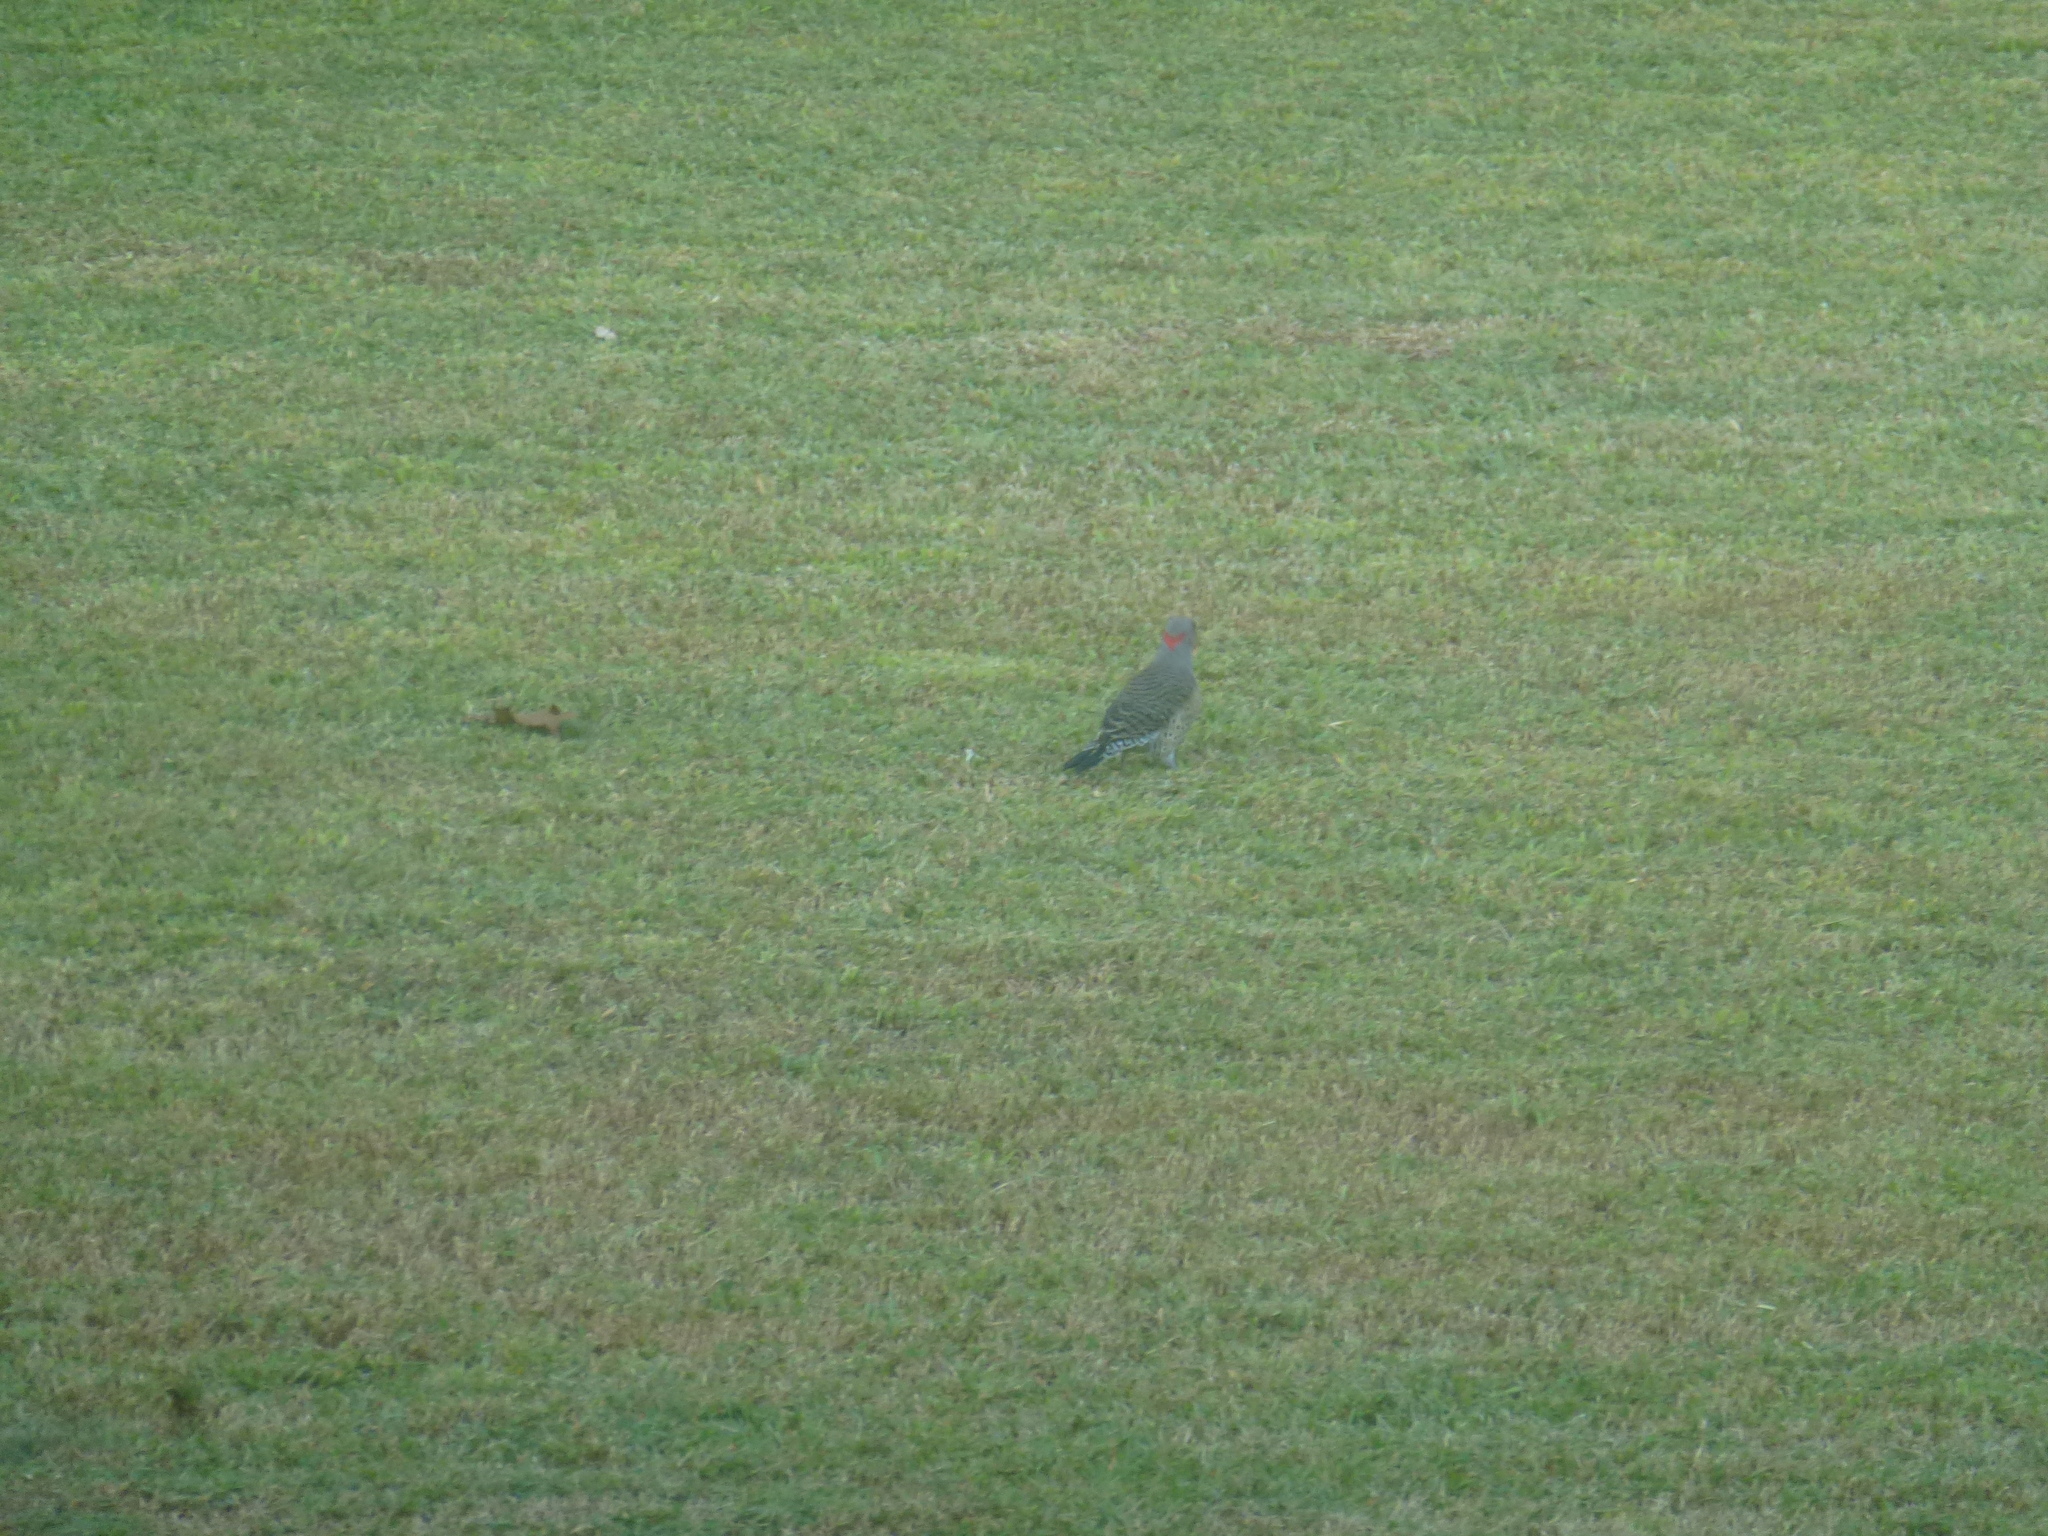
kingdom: Animalia
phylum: Chordata
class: Aves
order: Piciformes
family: Picidae
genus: Colaptes
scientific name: Colaptes auratus
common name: Northern flicker
